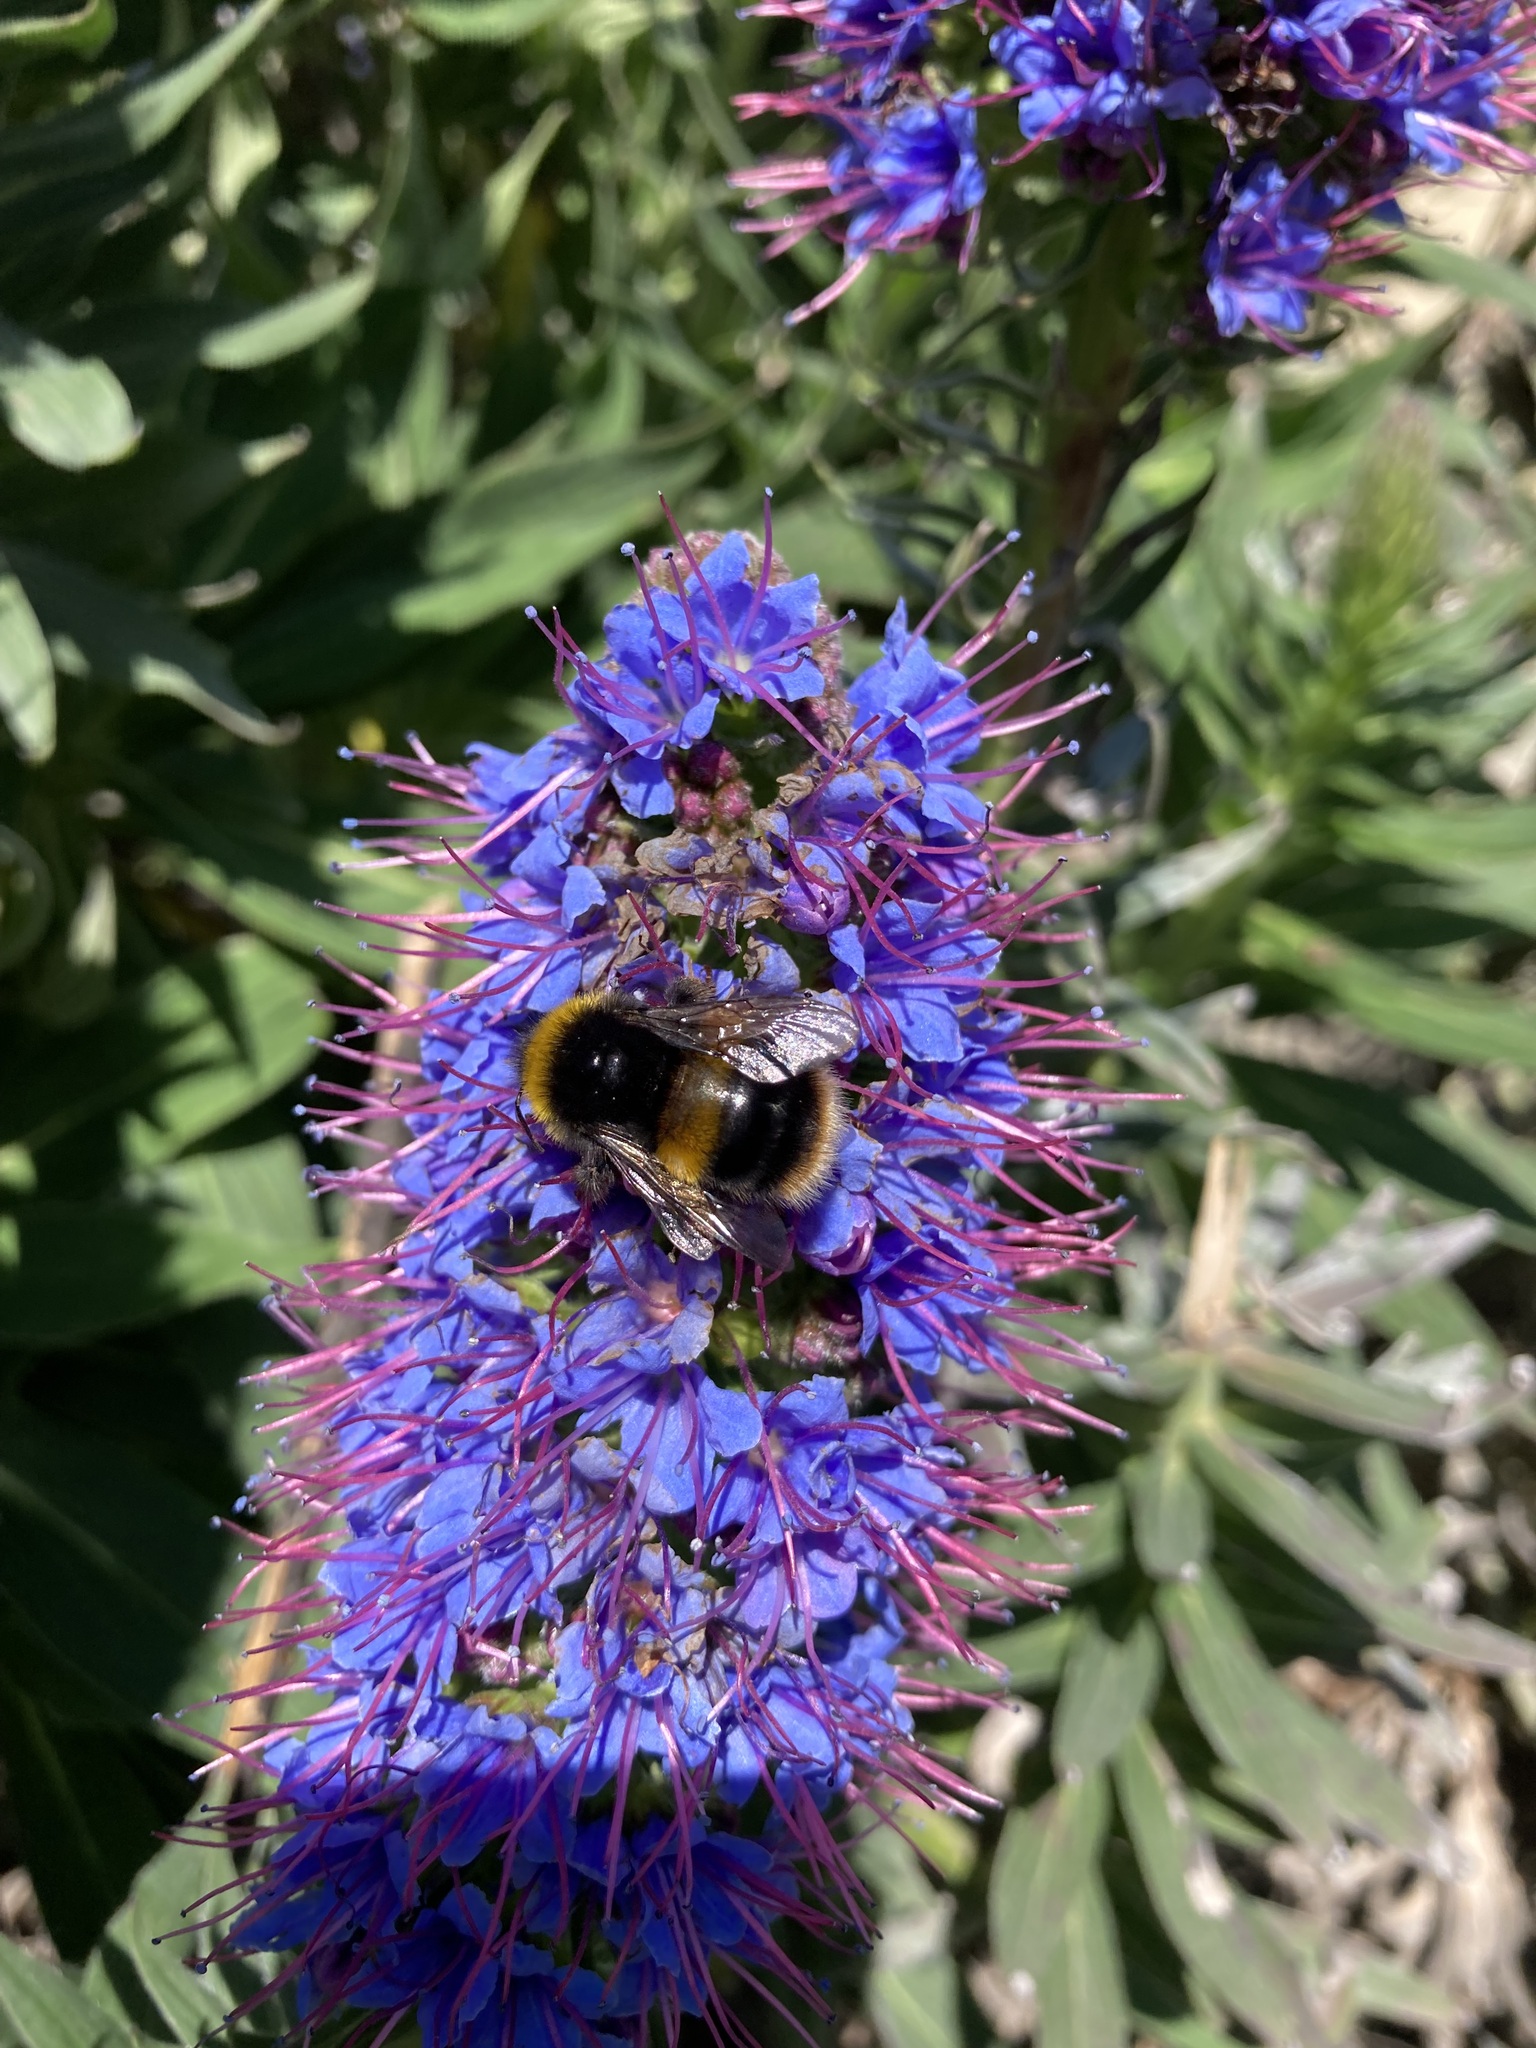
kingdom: Animalia
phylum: Arthropoda
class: Insecta
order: Hymenoptera
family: Apidae
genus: Bombus
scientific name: Bombus terrestris
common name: Buff-tailed bumblebee
